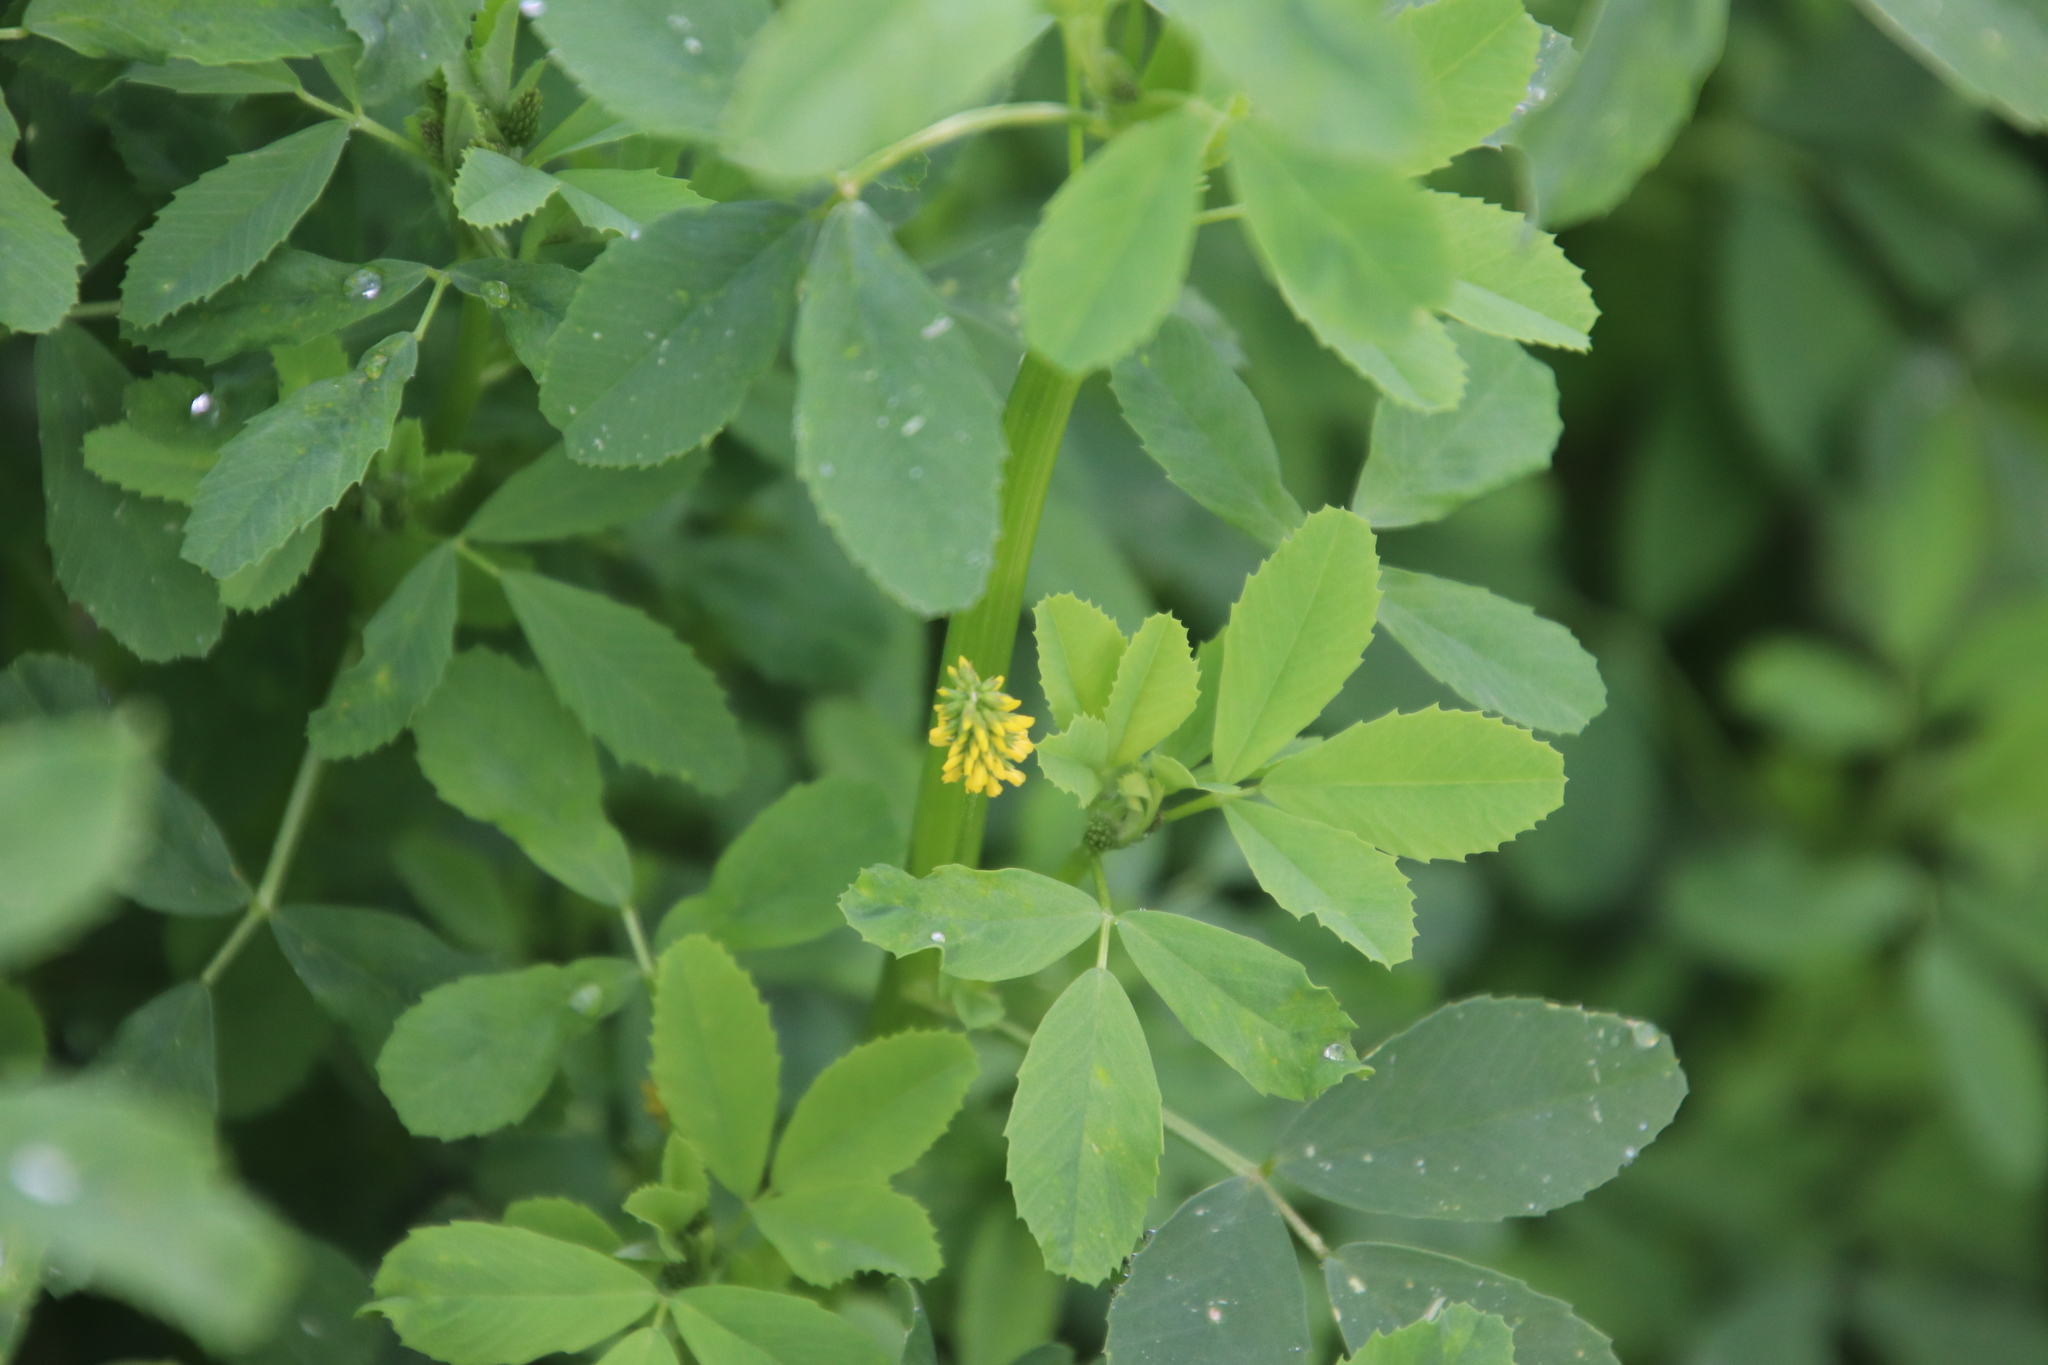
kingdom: Plantae
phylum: Tracheophyta
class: Magnoliopsida
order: Fabales
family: Fabaceae
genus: Melilotus
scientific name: Melilotus indicus
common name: Small melilot
